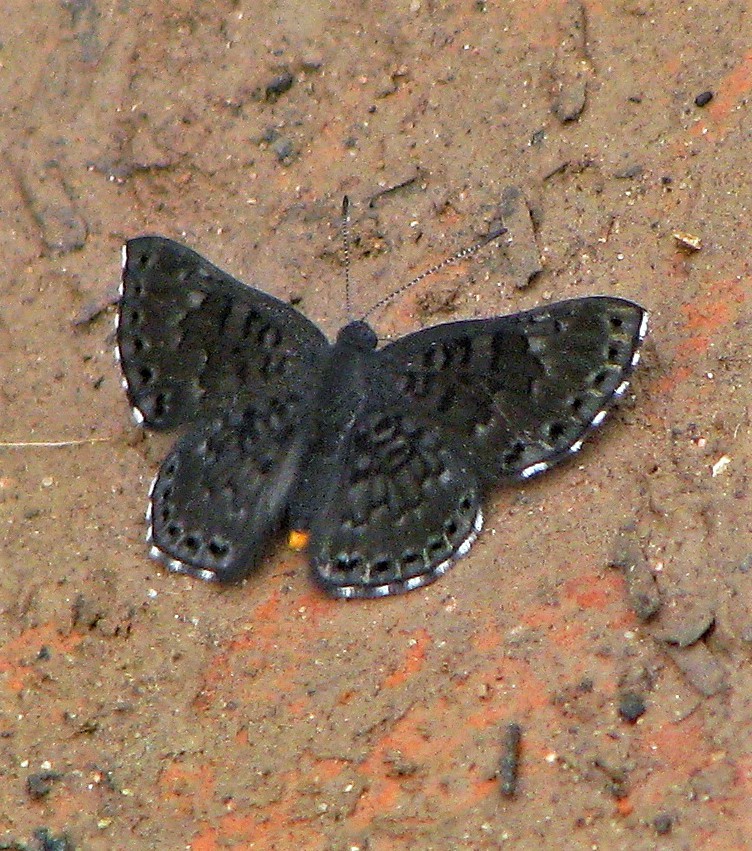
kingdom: Animalia
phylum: Arthropoda
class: Insecta
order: Lepidoptera
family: Riodinidae
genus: Nelone
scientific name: Nelone Exoplisia myrtis
